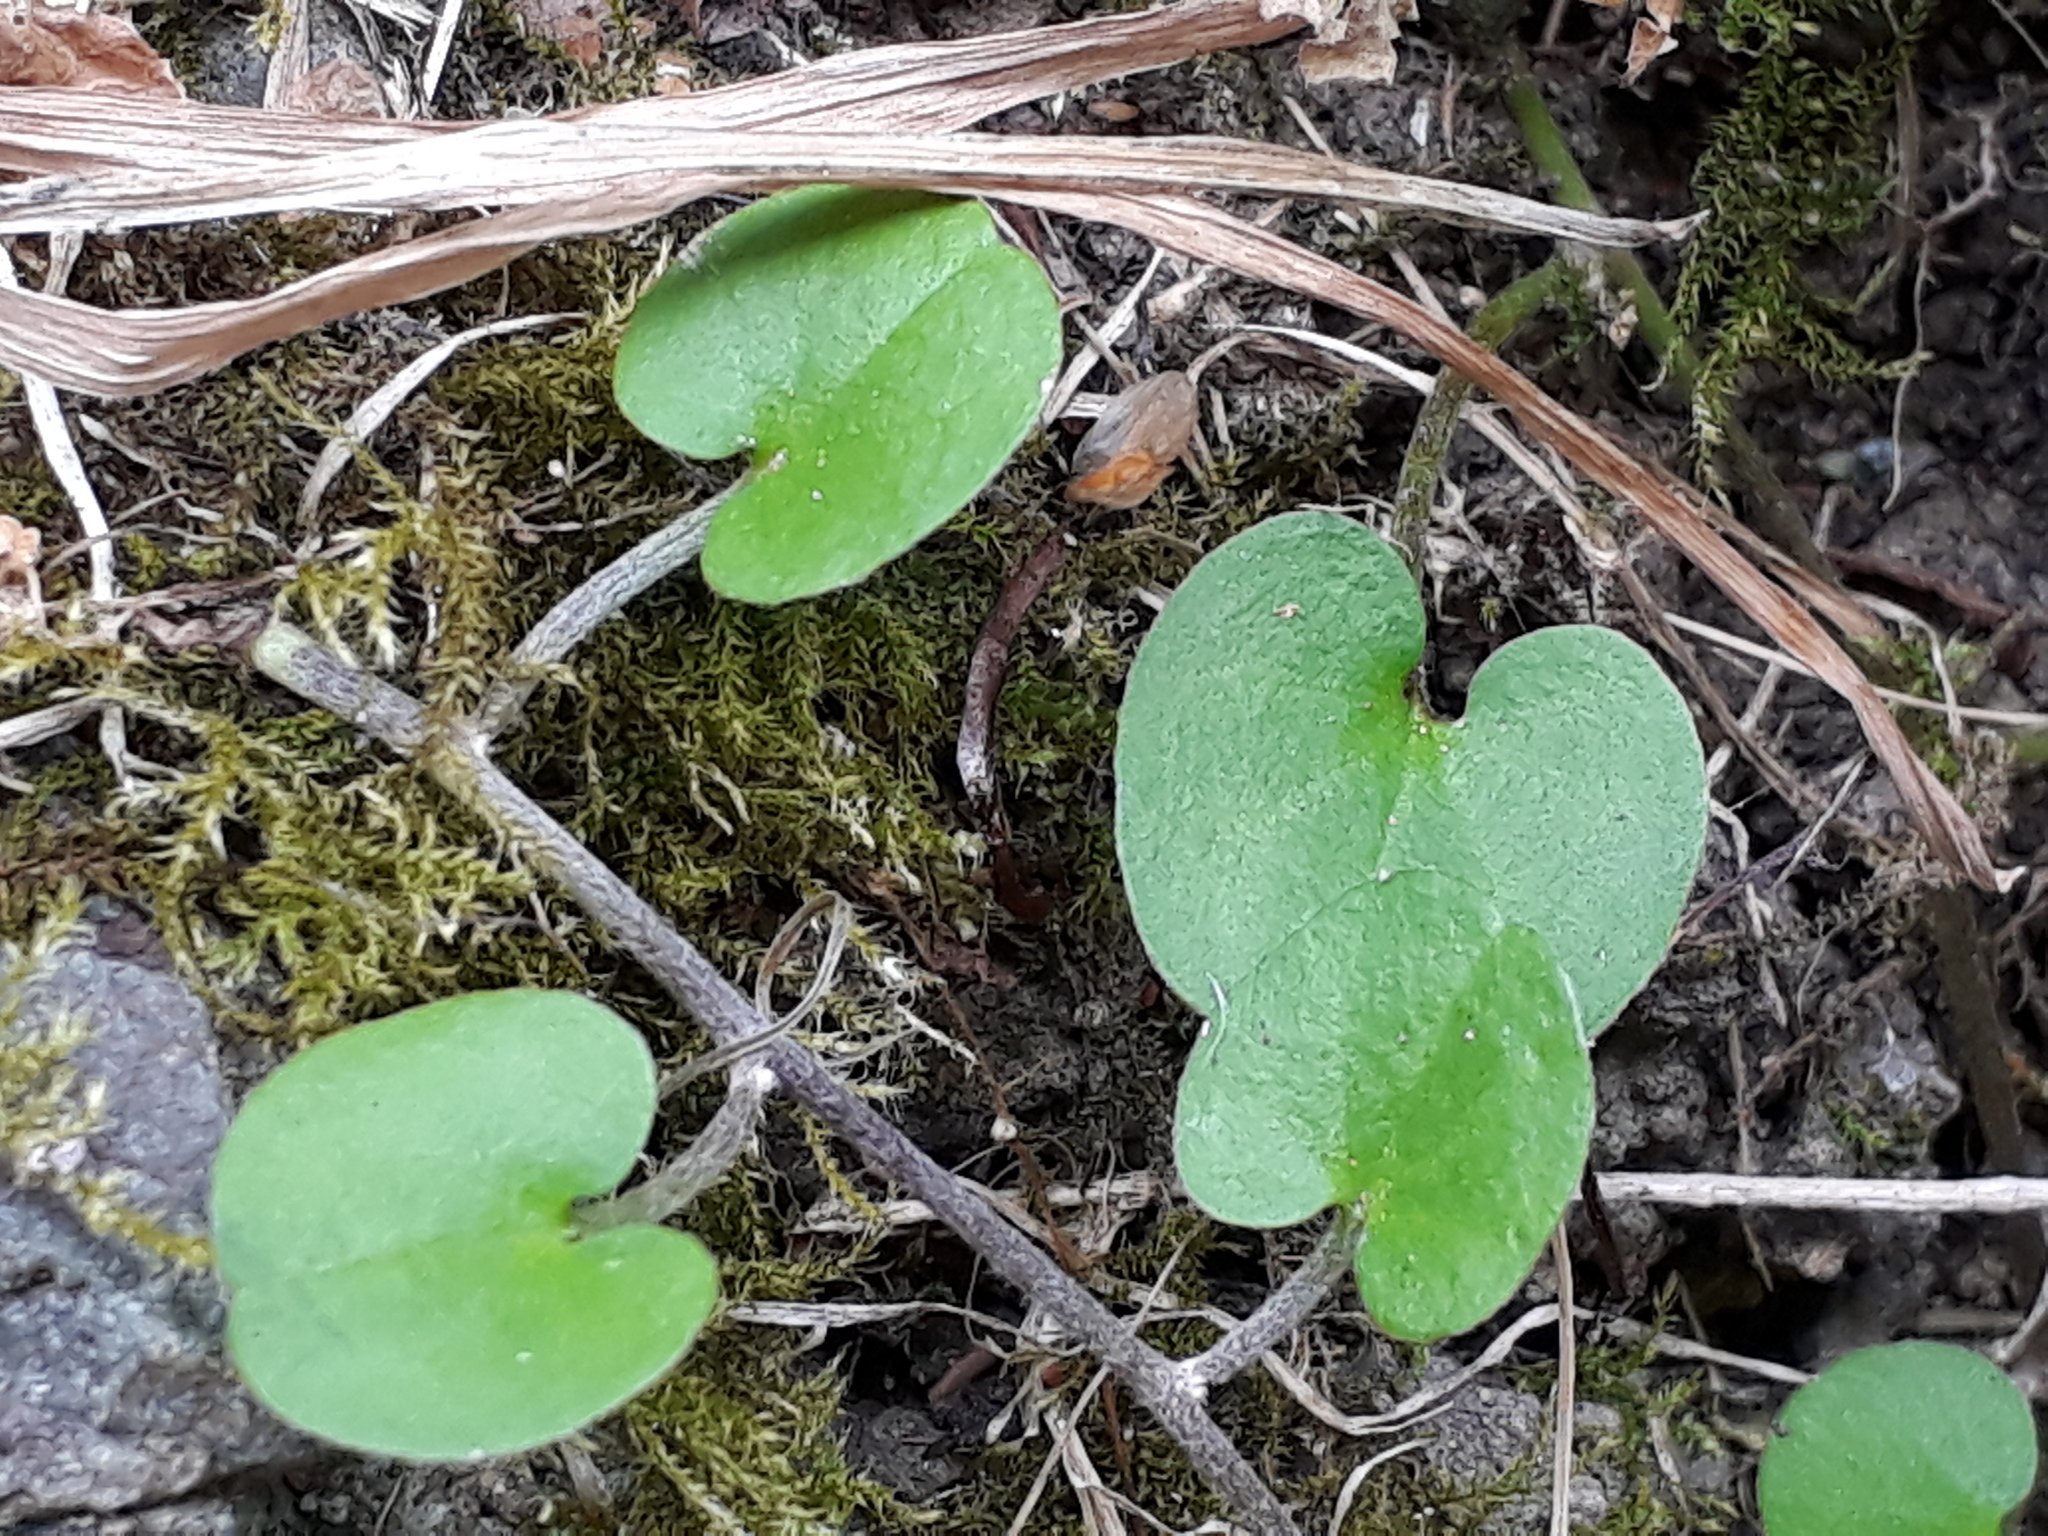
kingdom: Plantae
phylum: Tracheophyta
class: Magnoliopsida
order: Solanales
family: Convolvulaceae
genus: Dichondra
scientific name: Dichondra micrantha
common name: Kidneyweed
